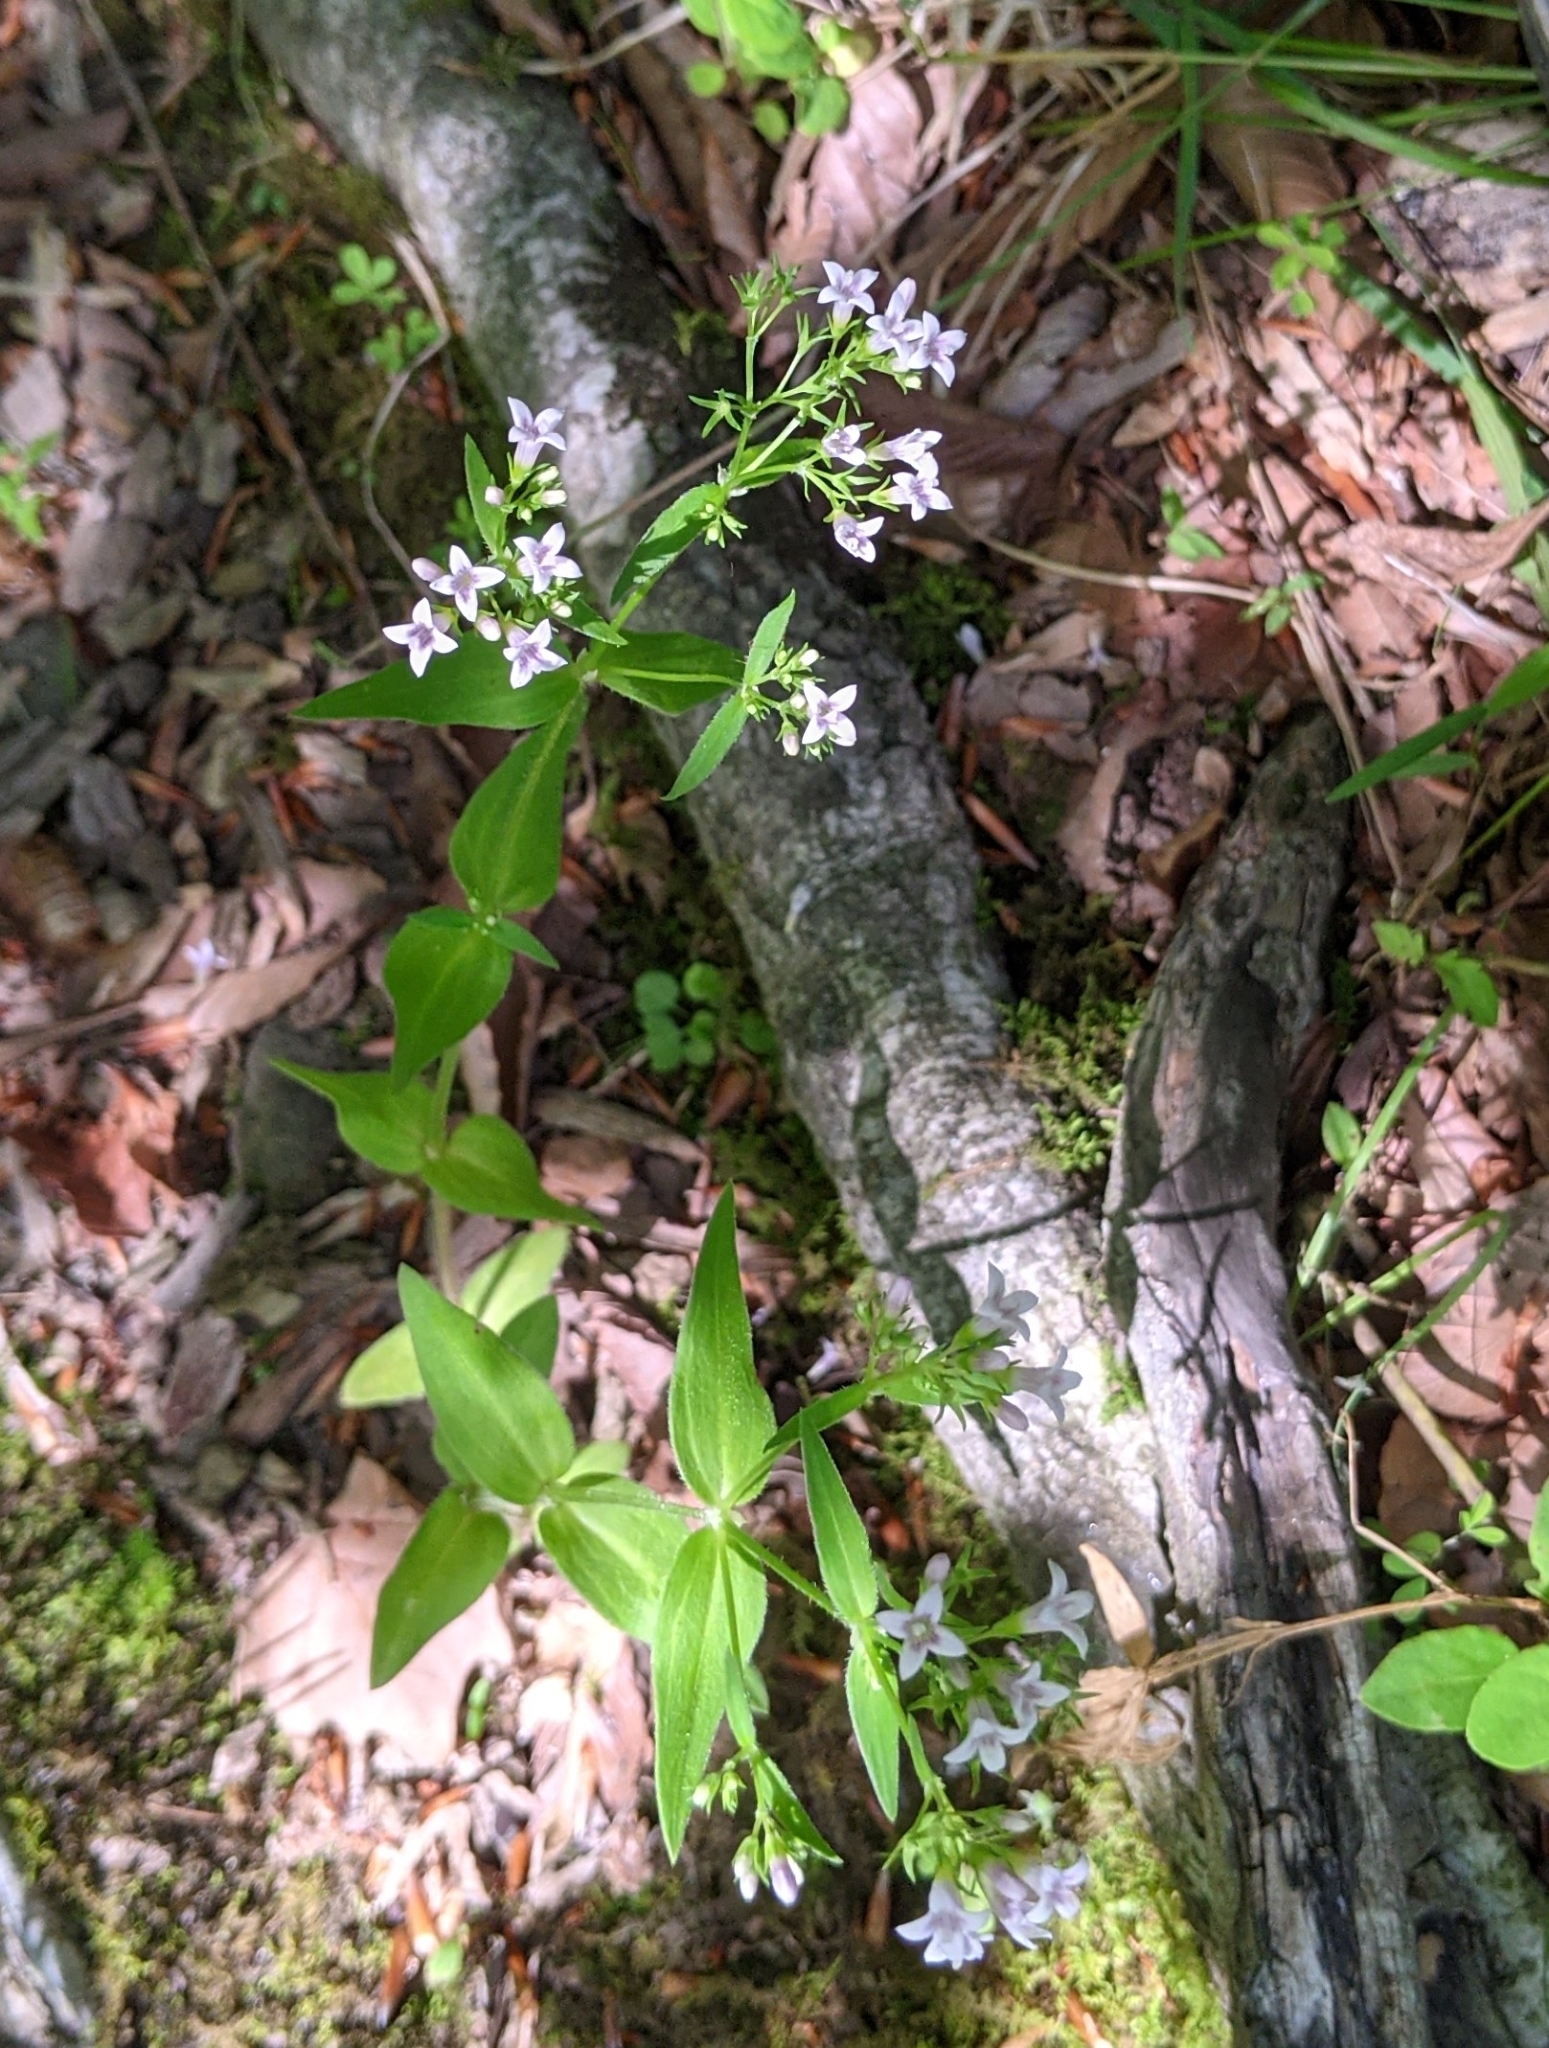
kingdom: Plantae
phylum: Tracheophyta
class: Magnoliopsida
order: Gentianales
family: Rubiaceae
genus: Houstonia
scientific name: Houstonia purpurea
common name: Summer bluet
